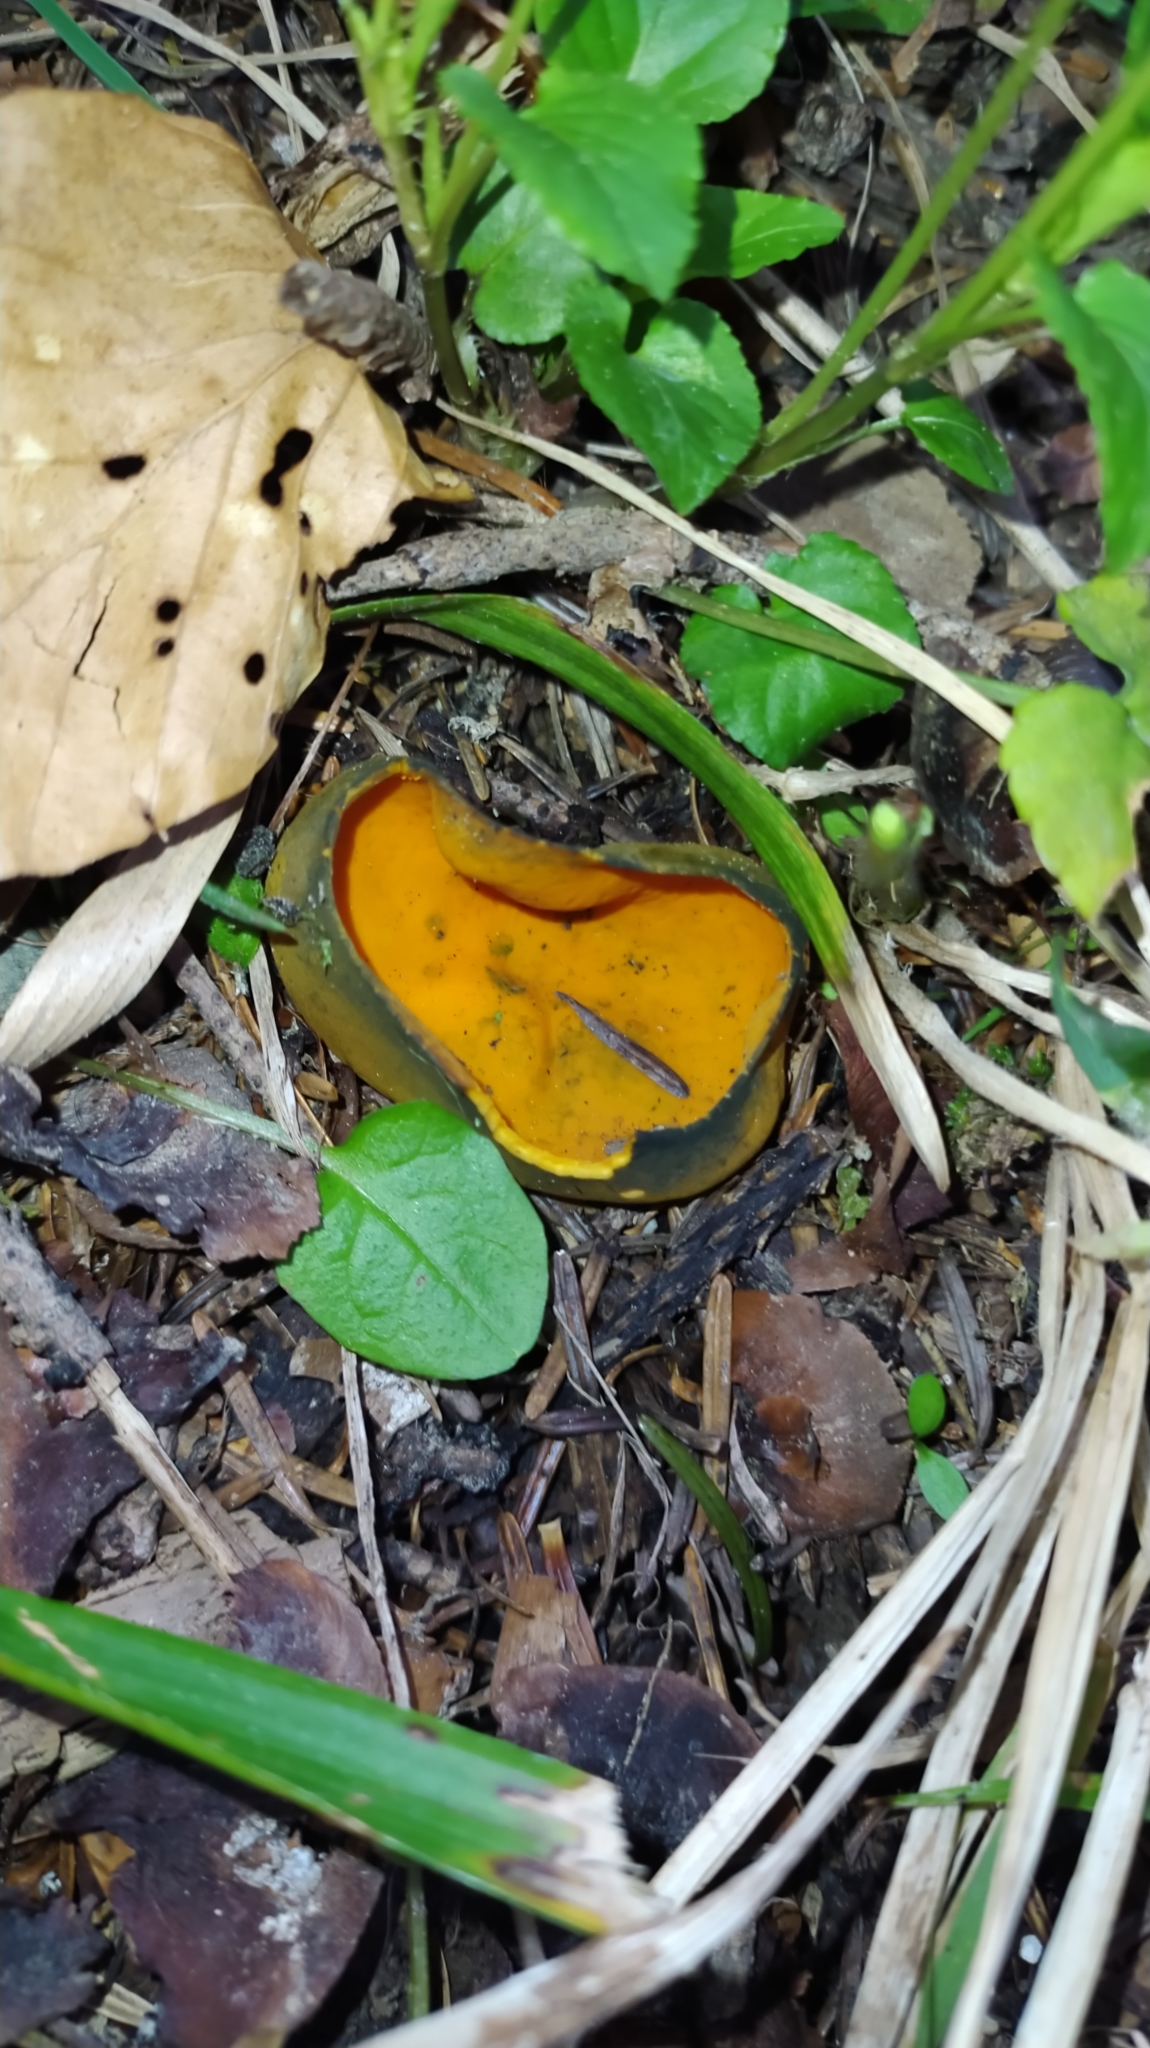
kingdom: Fungi
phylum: Ascomycota
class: Pezizomycetes
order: Pezizales
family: Caloscyphaceae
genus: Caloscypha
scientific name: Caloscypha fulgens
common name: Golden cup
